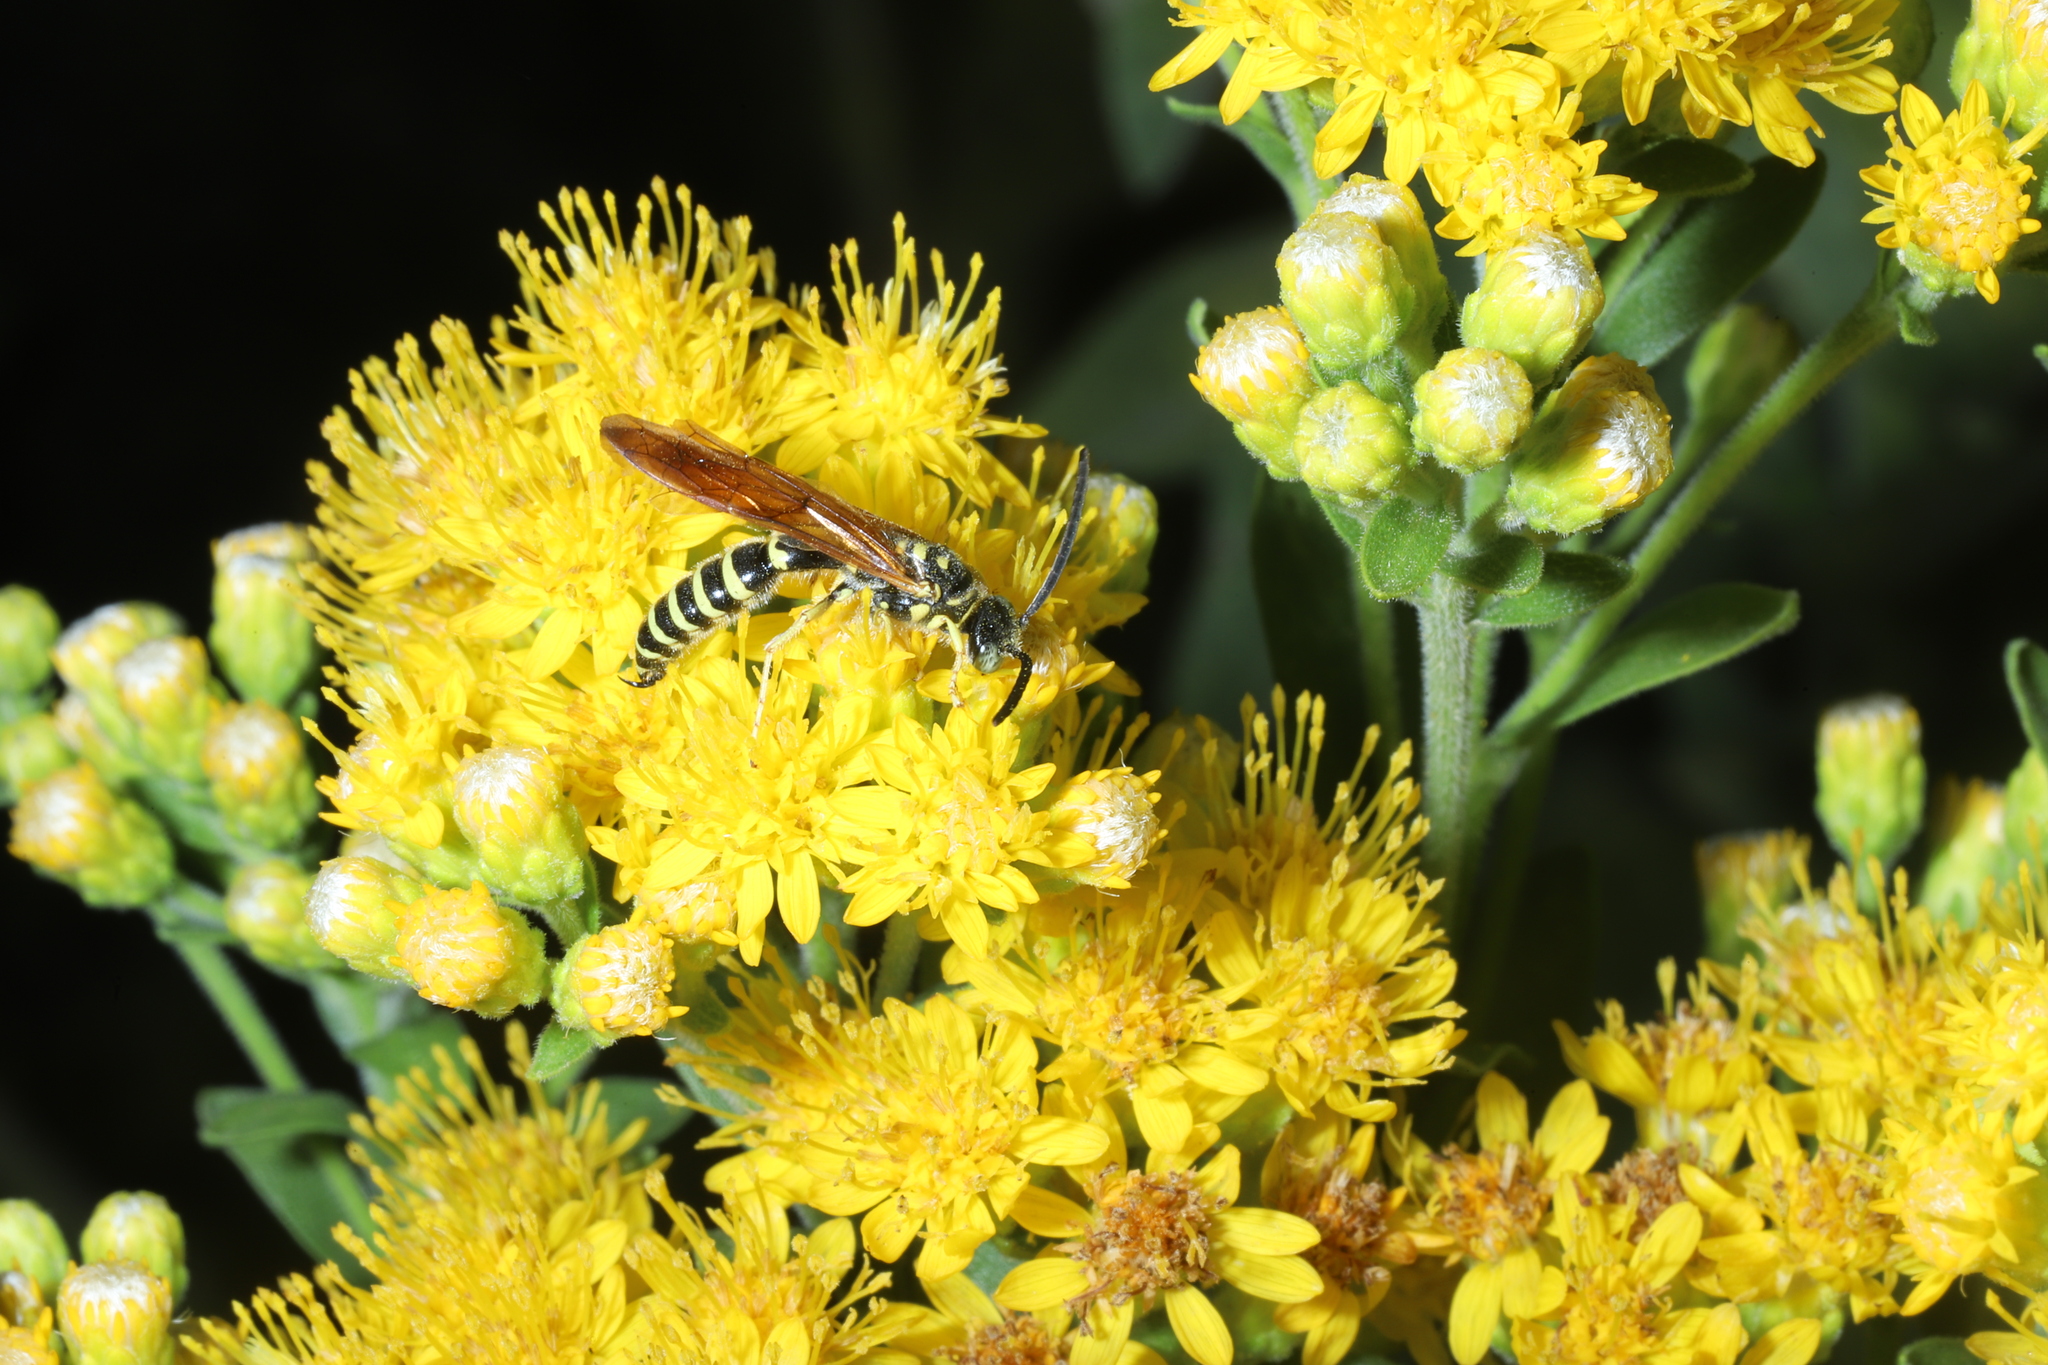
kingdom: Animalia
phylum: Arthropoda
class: Insecta
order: Hymenoptera
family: Tiphiidae
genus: Myzinum
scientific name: Myzinum quinquecinctum
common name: Five-banded thynnid wasp
